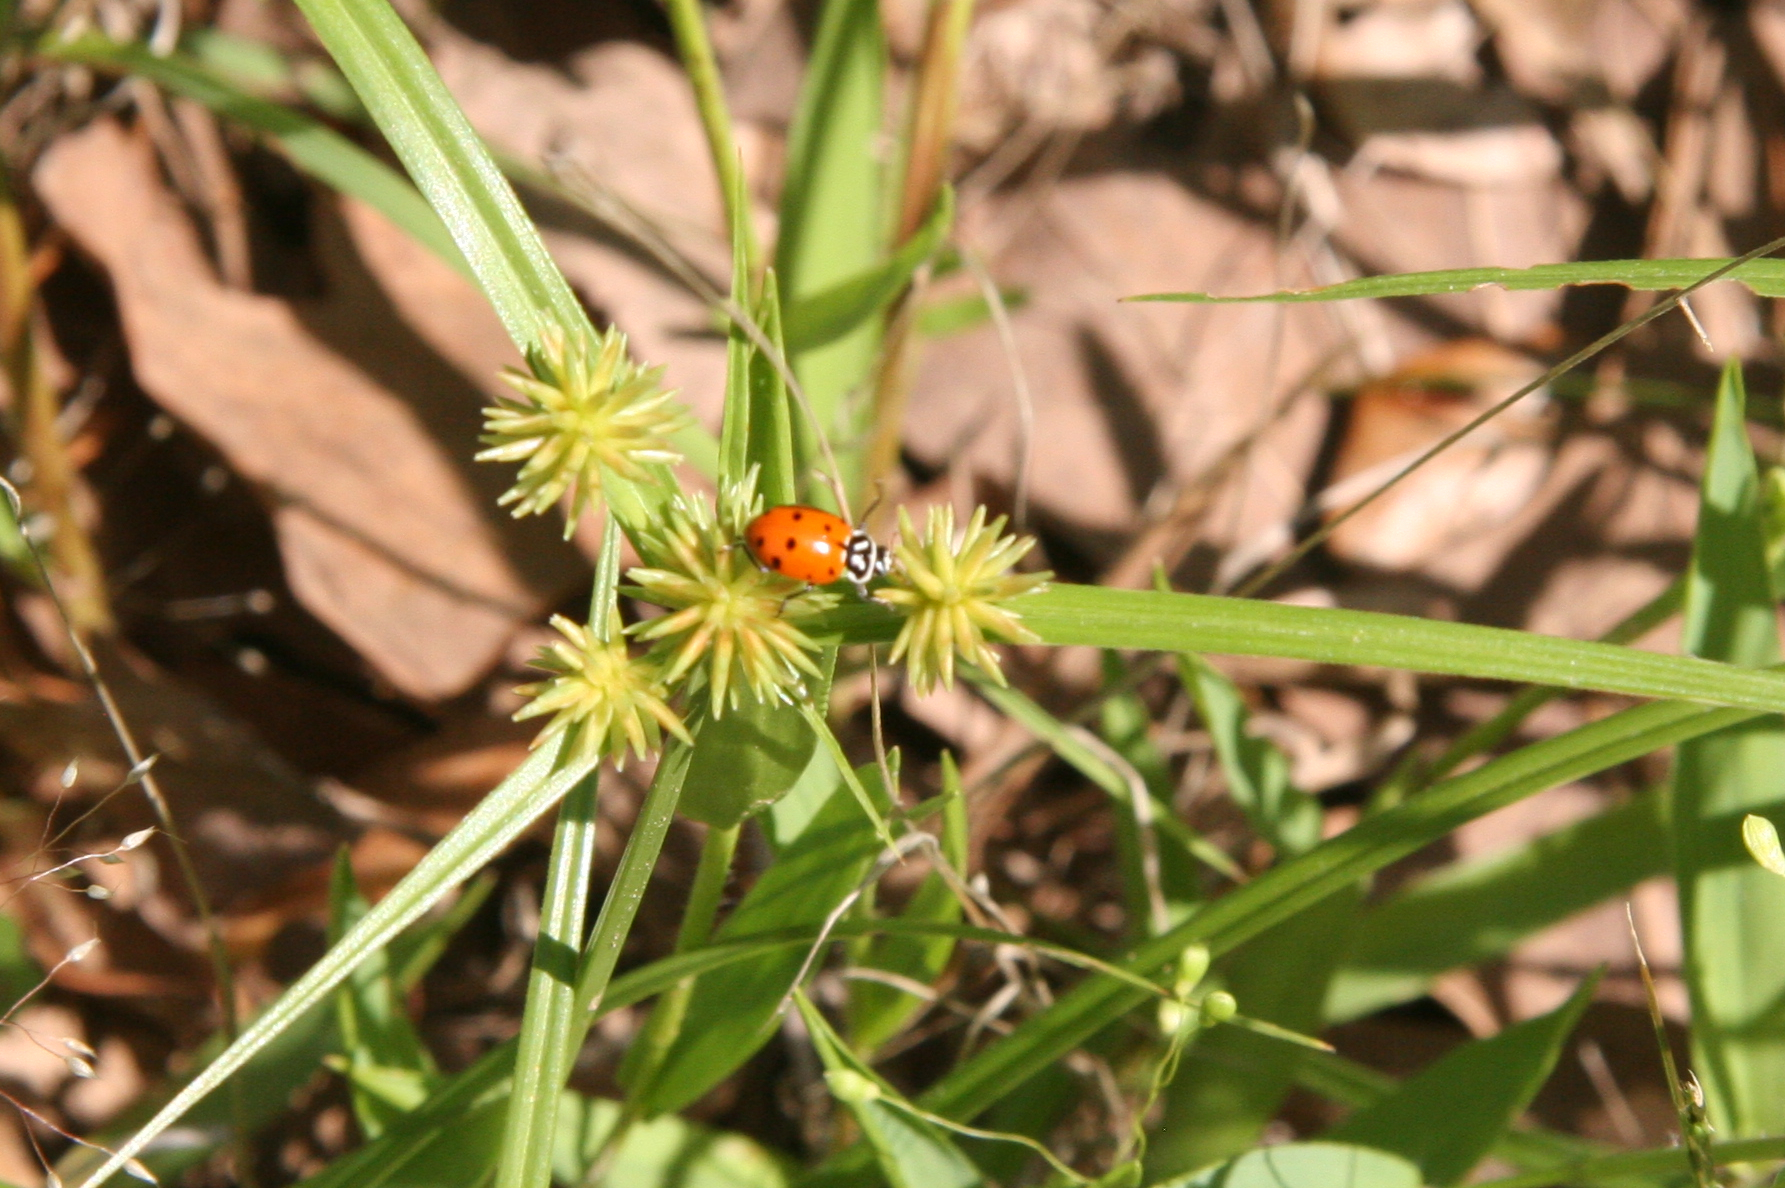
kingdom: Animalia
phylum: Arthropoda
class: Insecta
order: Coleoptera
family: Coccinellidae
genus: Hippodamia
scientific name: Hippodamia convergens
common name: Convergent lady beetle
